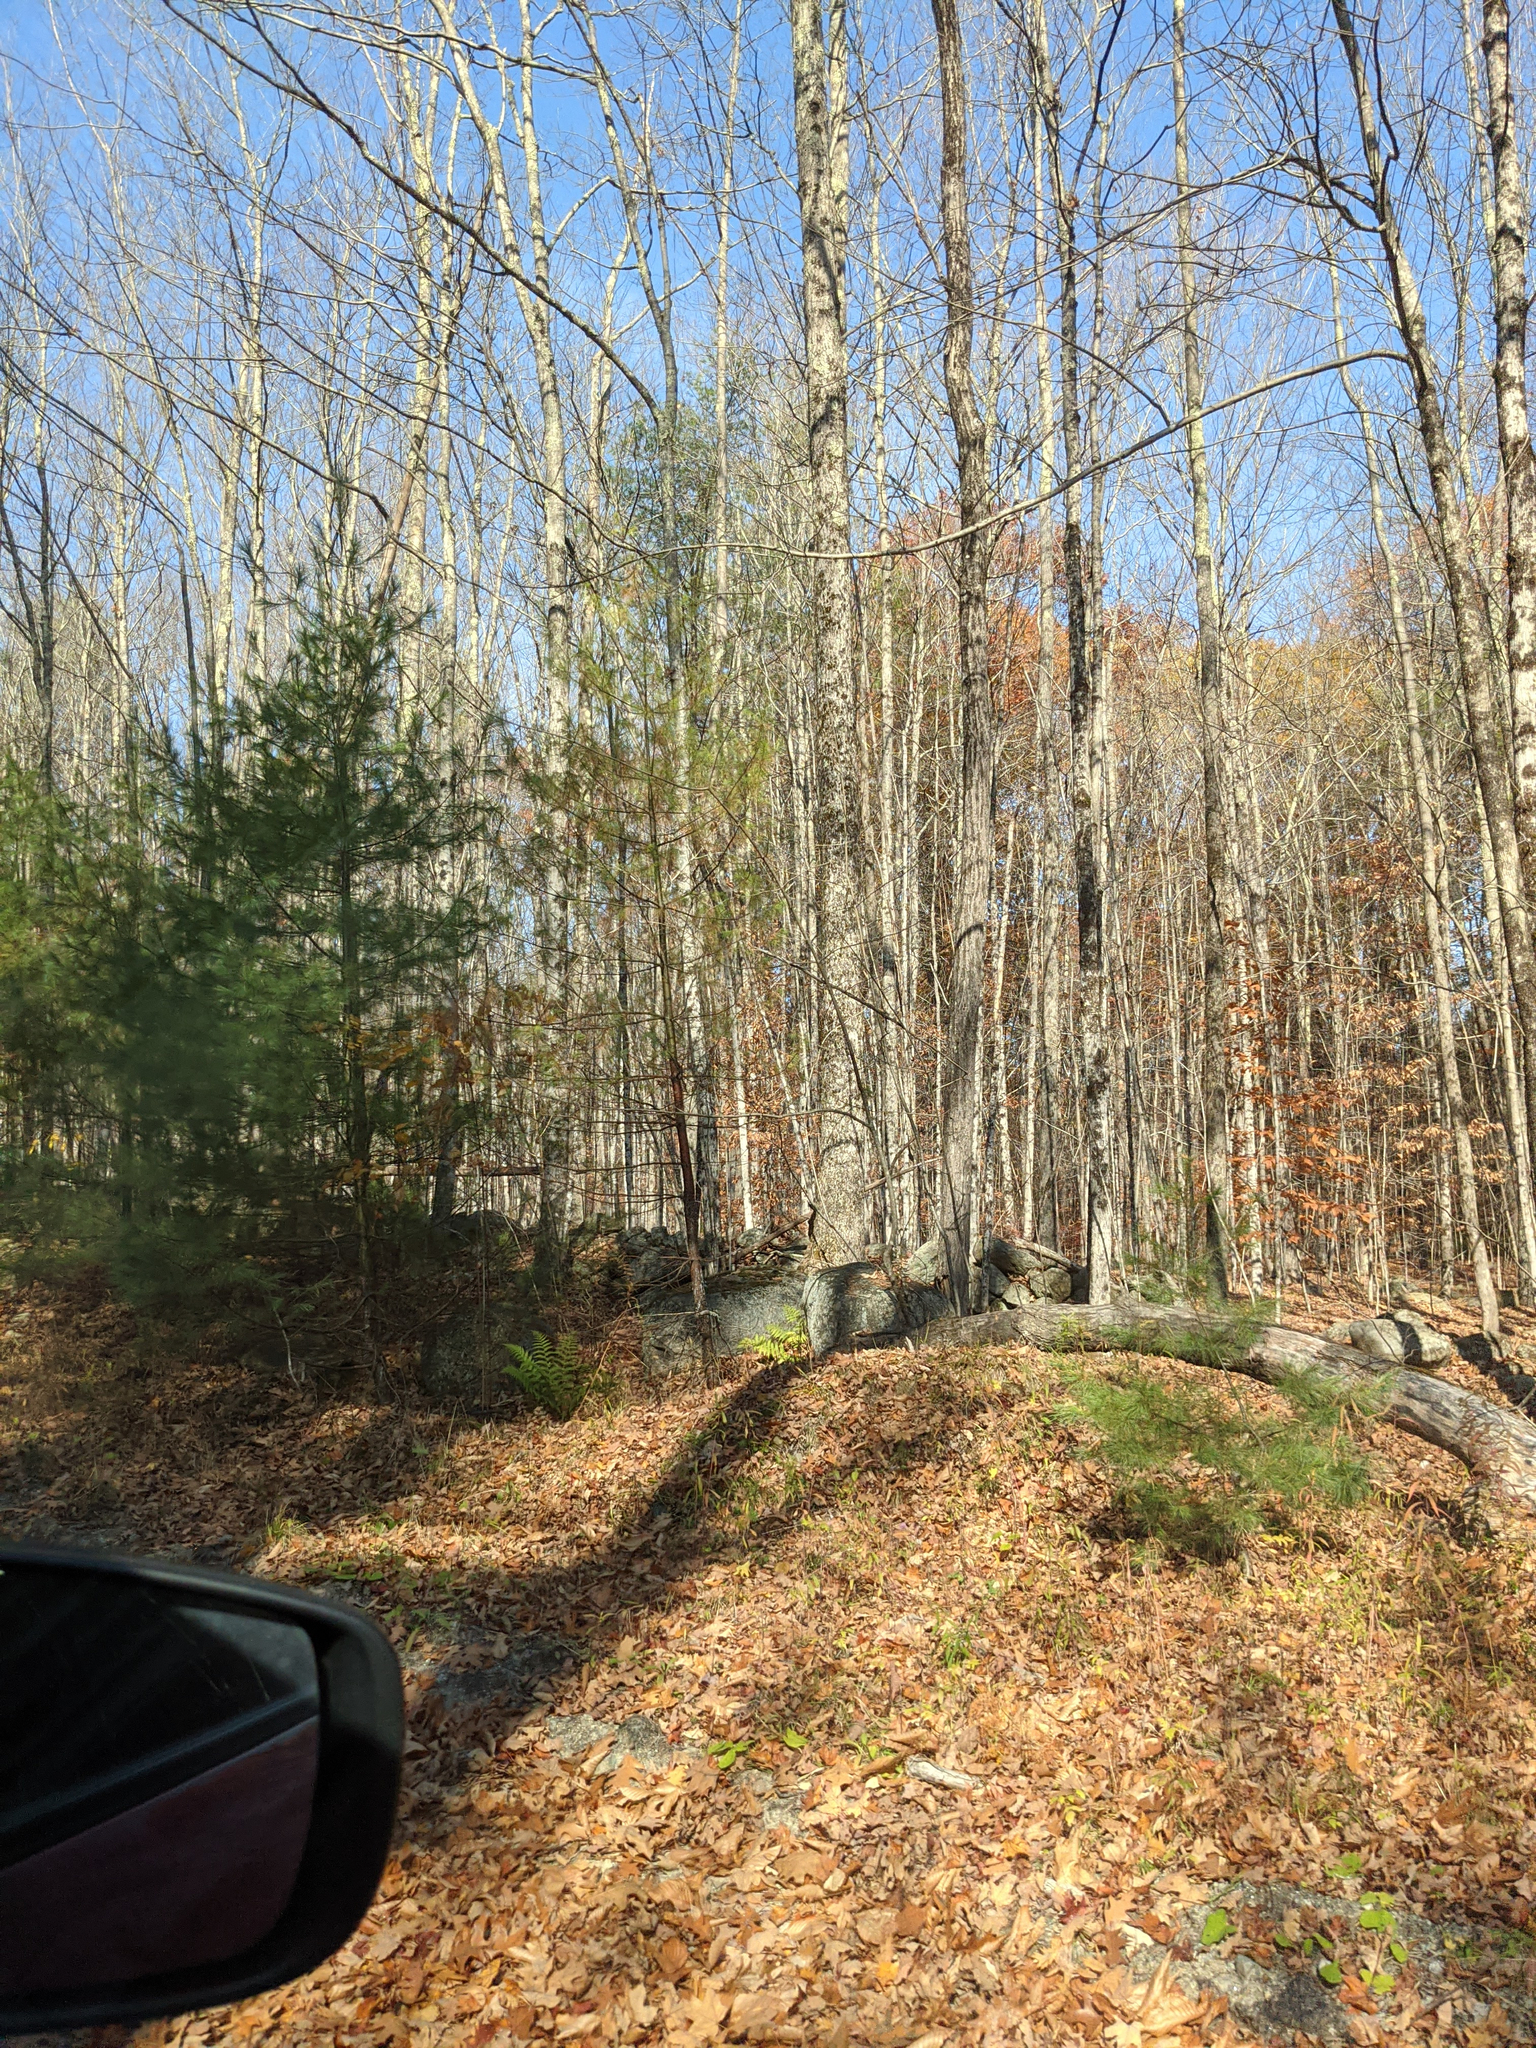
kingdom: Plantae
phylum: Tracheophyta
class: Pinopsida
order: Pinales
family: Pinaceae
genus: Pinus
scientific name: Pinus strobus
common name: Weymouth pine
